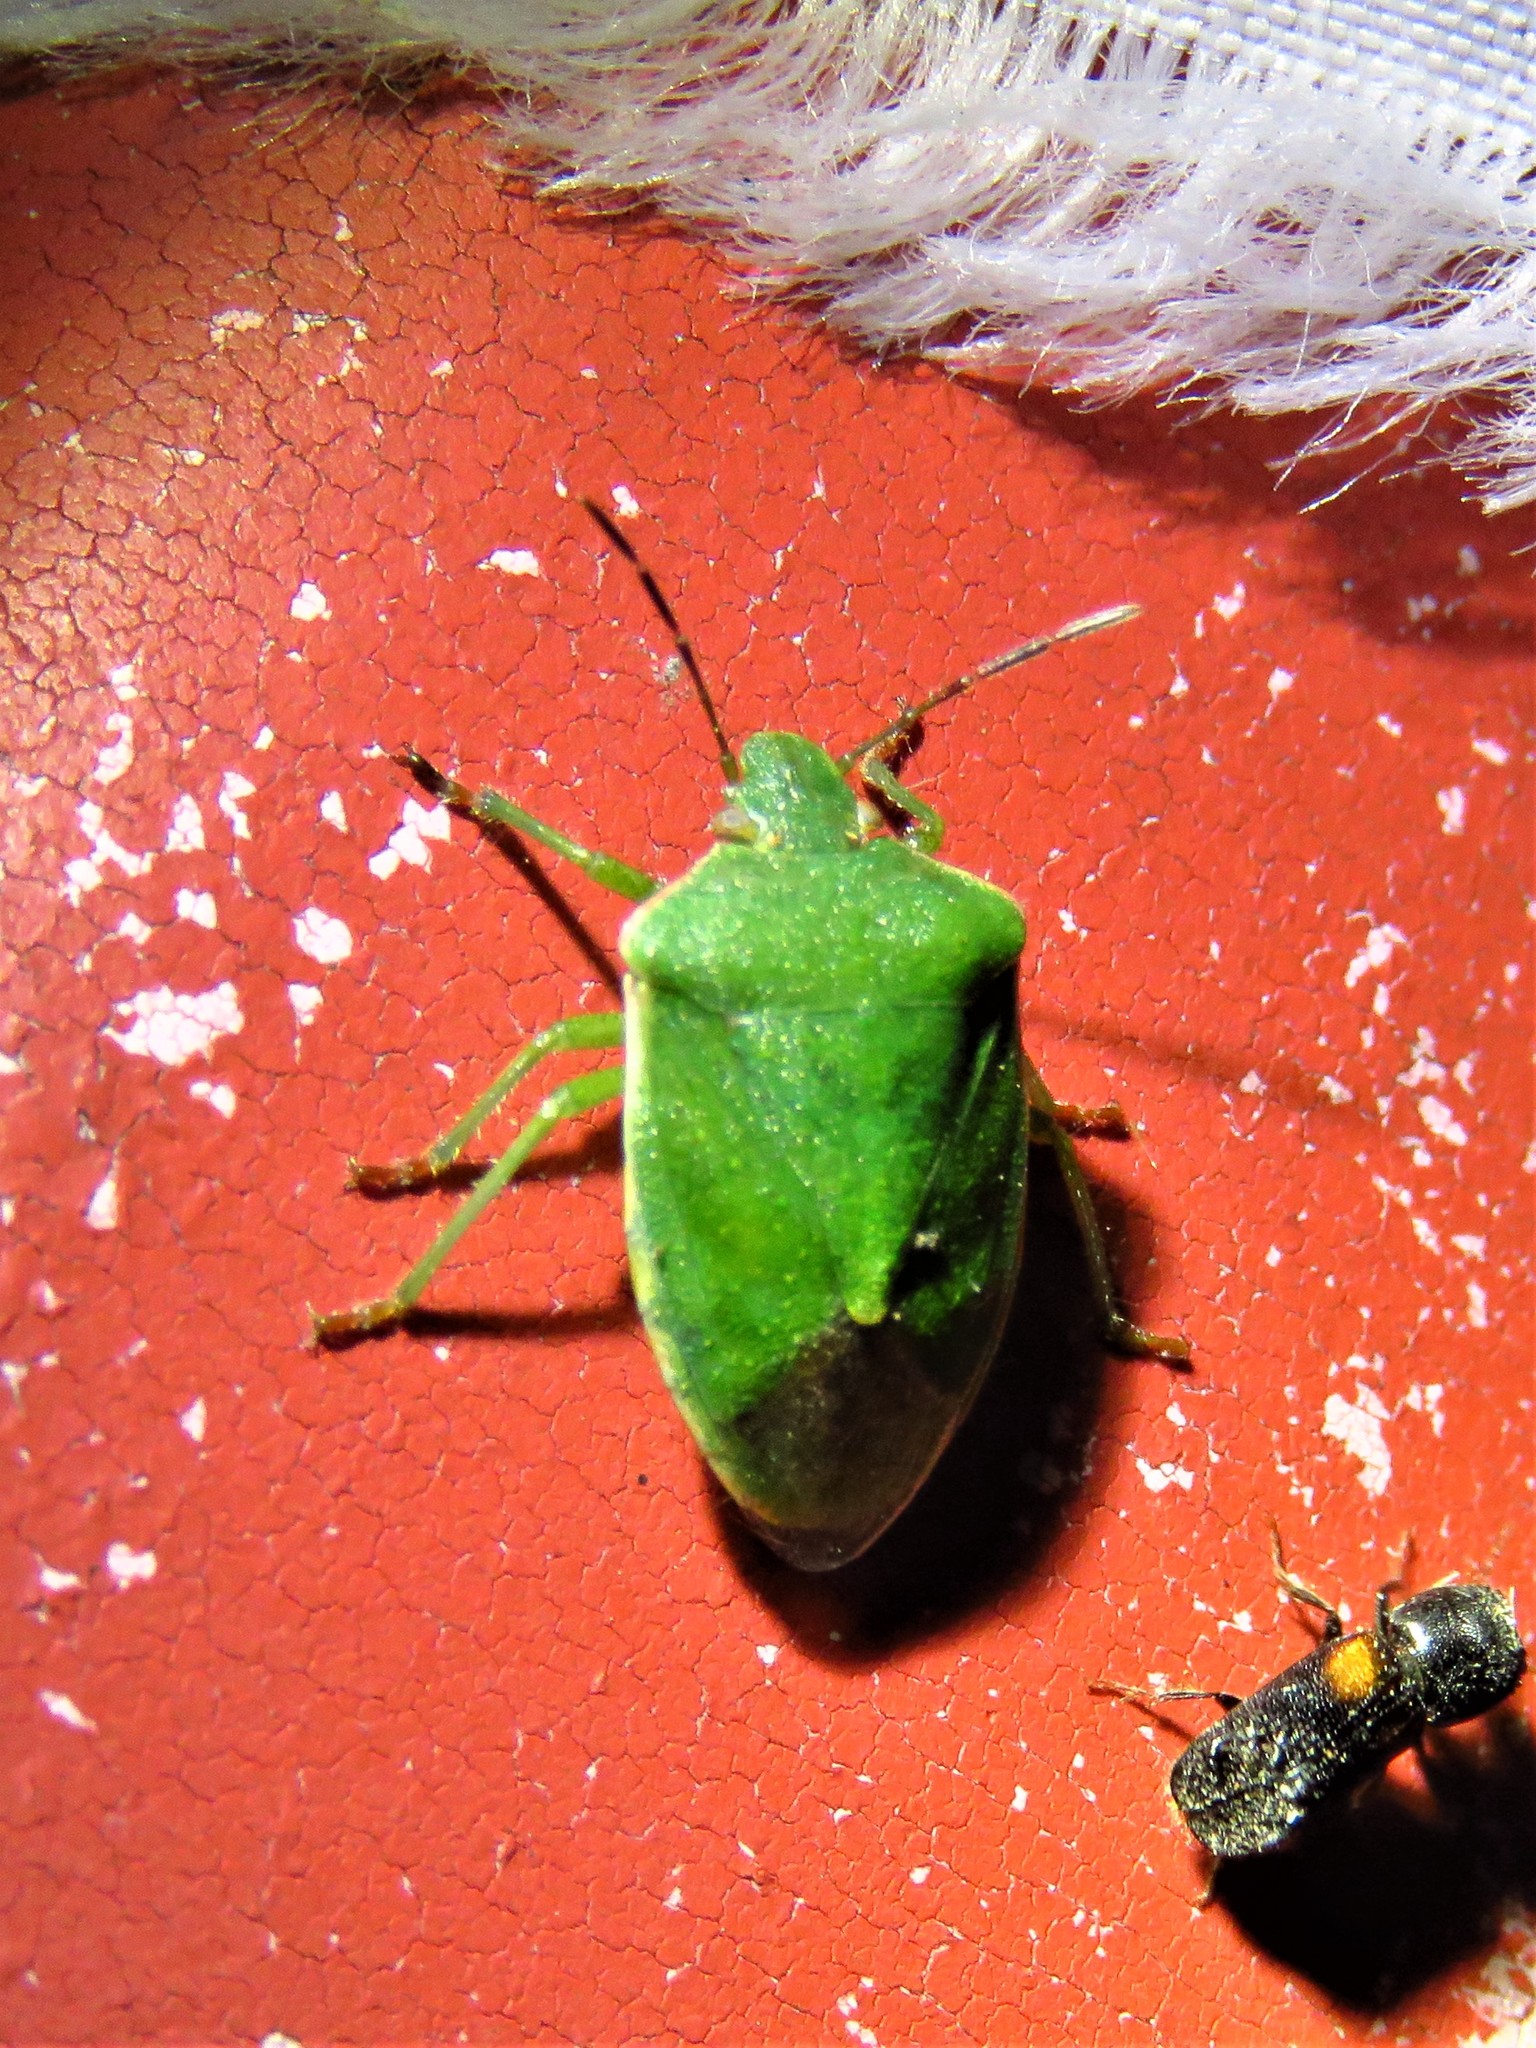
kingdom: Animalia
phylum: Arthropoda
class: Insecta
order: Hemiptera
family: Pentatomidae
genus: Thyanta
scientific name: Thyanta accerra
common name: Stink bug
